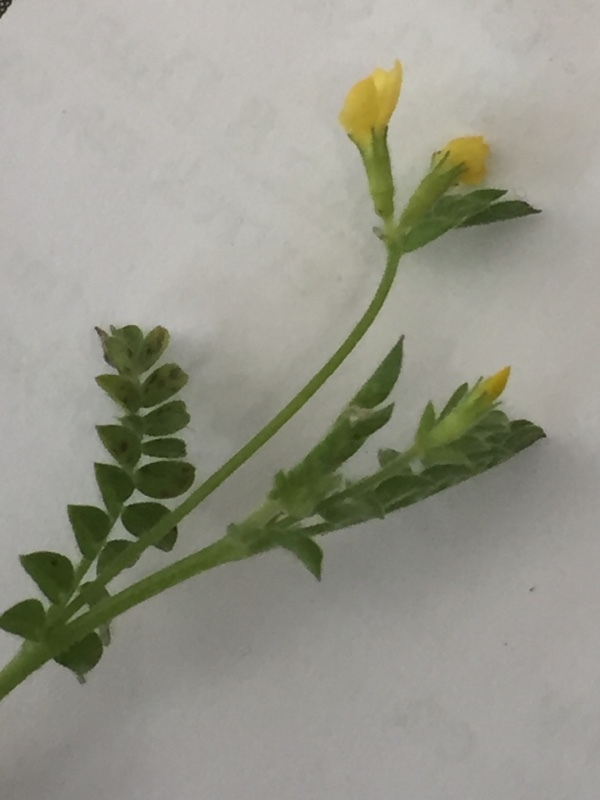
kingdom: Plantae
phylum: Tracheophyta
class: Magnoliopsida
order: Fabales
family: Fabaceae
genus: Ornithopus
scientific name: Ornithopus compressus
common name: Yellow serradella
